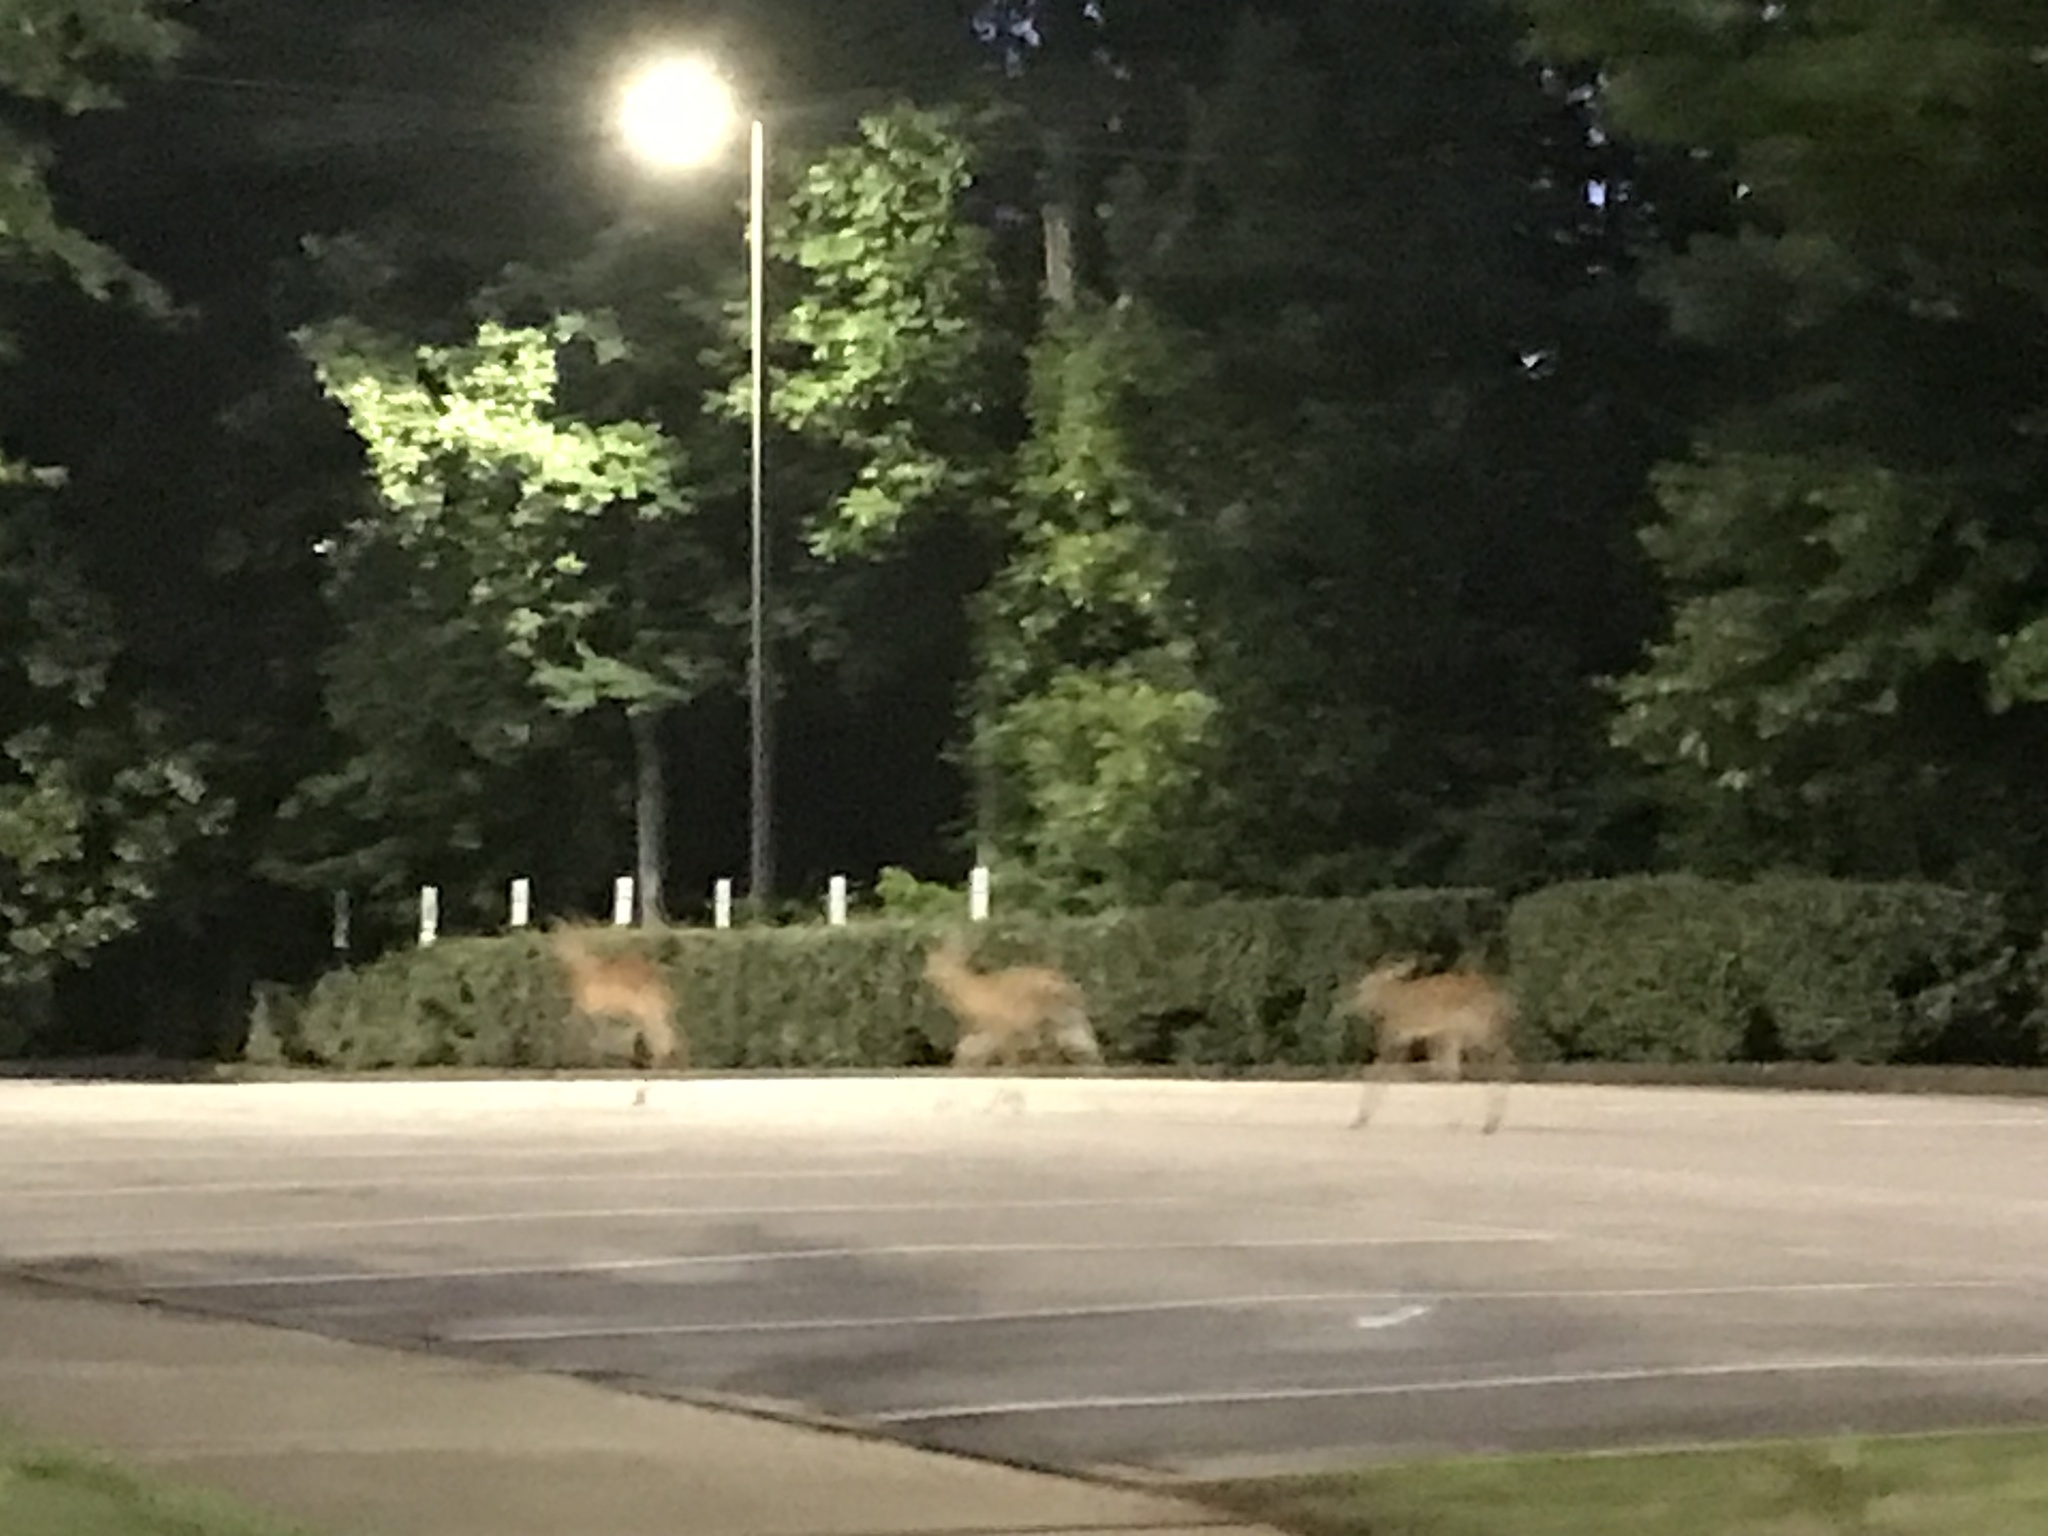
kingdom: Animalia
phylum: Chordata
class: Mammalia
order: Artiodactyla
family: Cervidae
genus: Odocoileus
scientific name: Odocoileus virginianus
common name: White-tailed deer
